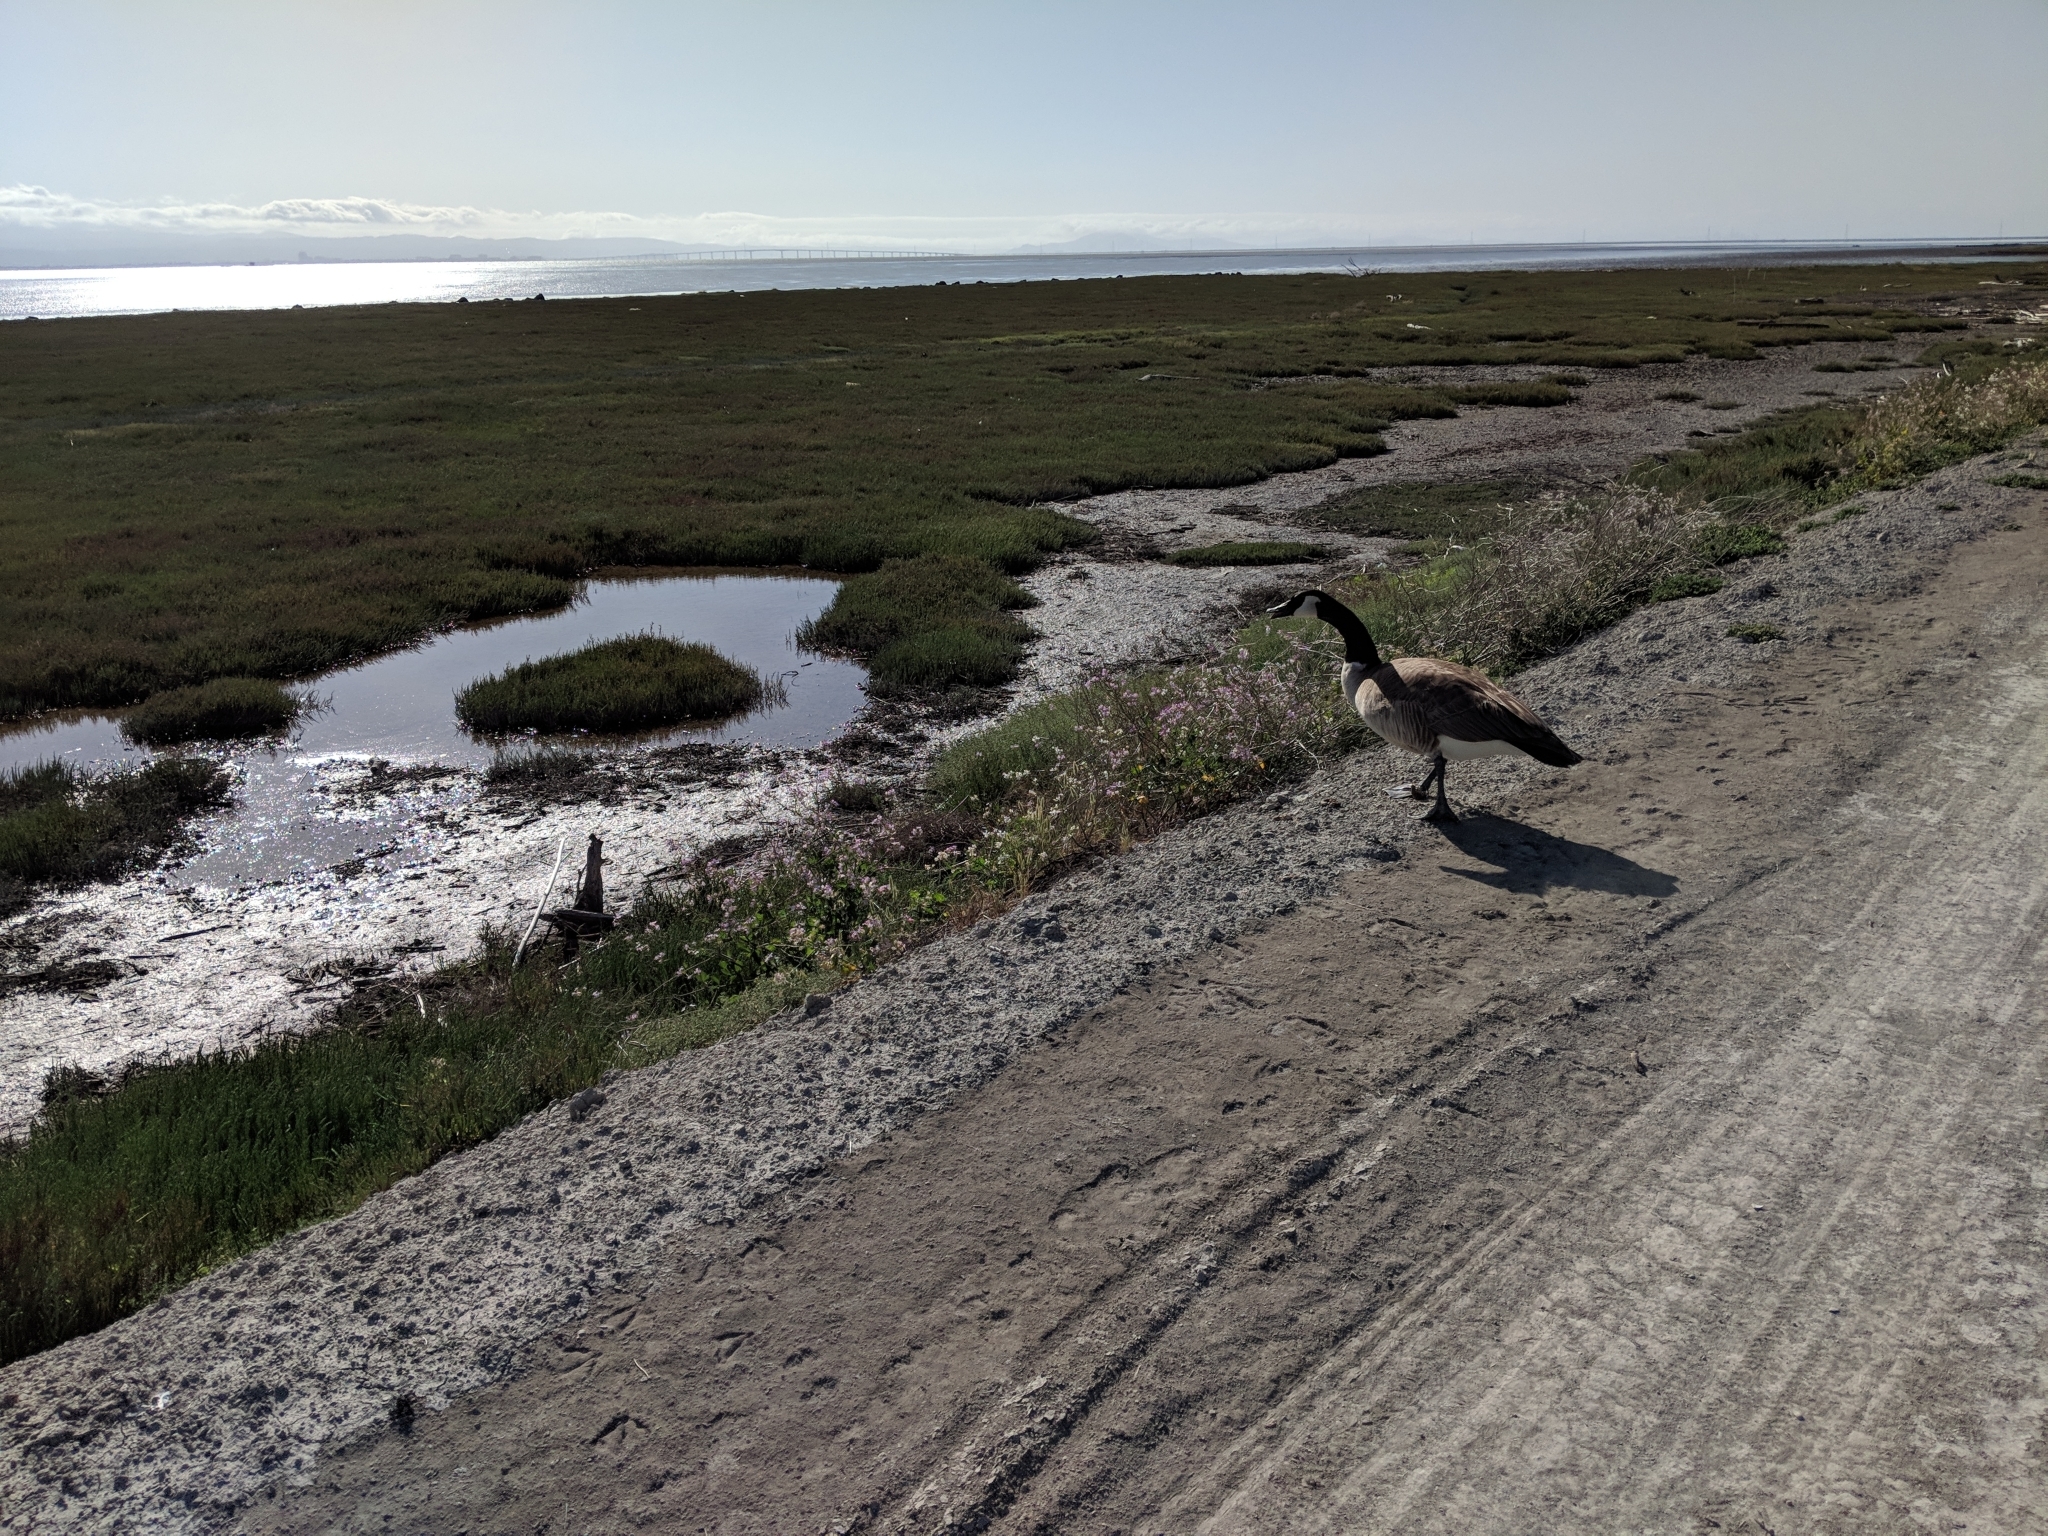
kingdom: Animalia
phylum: Chordata
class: Aves
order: Anseriformes
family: Anatidae
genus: Branta
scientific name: Branta canadensis
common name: Canada goose
